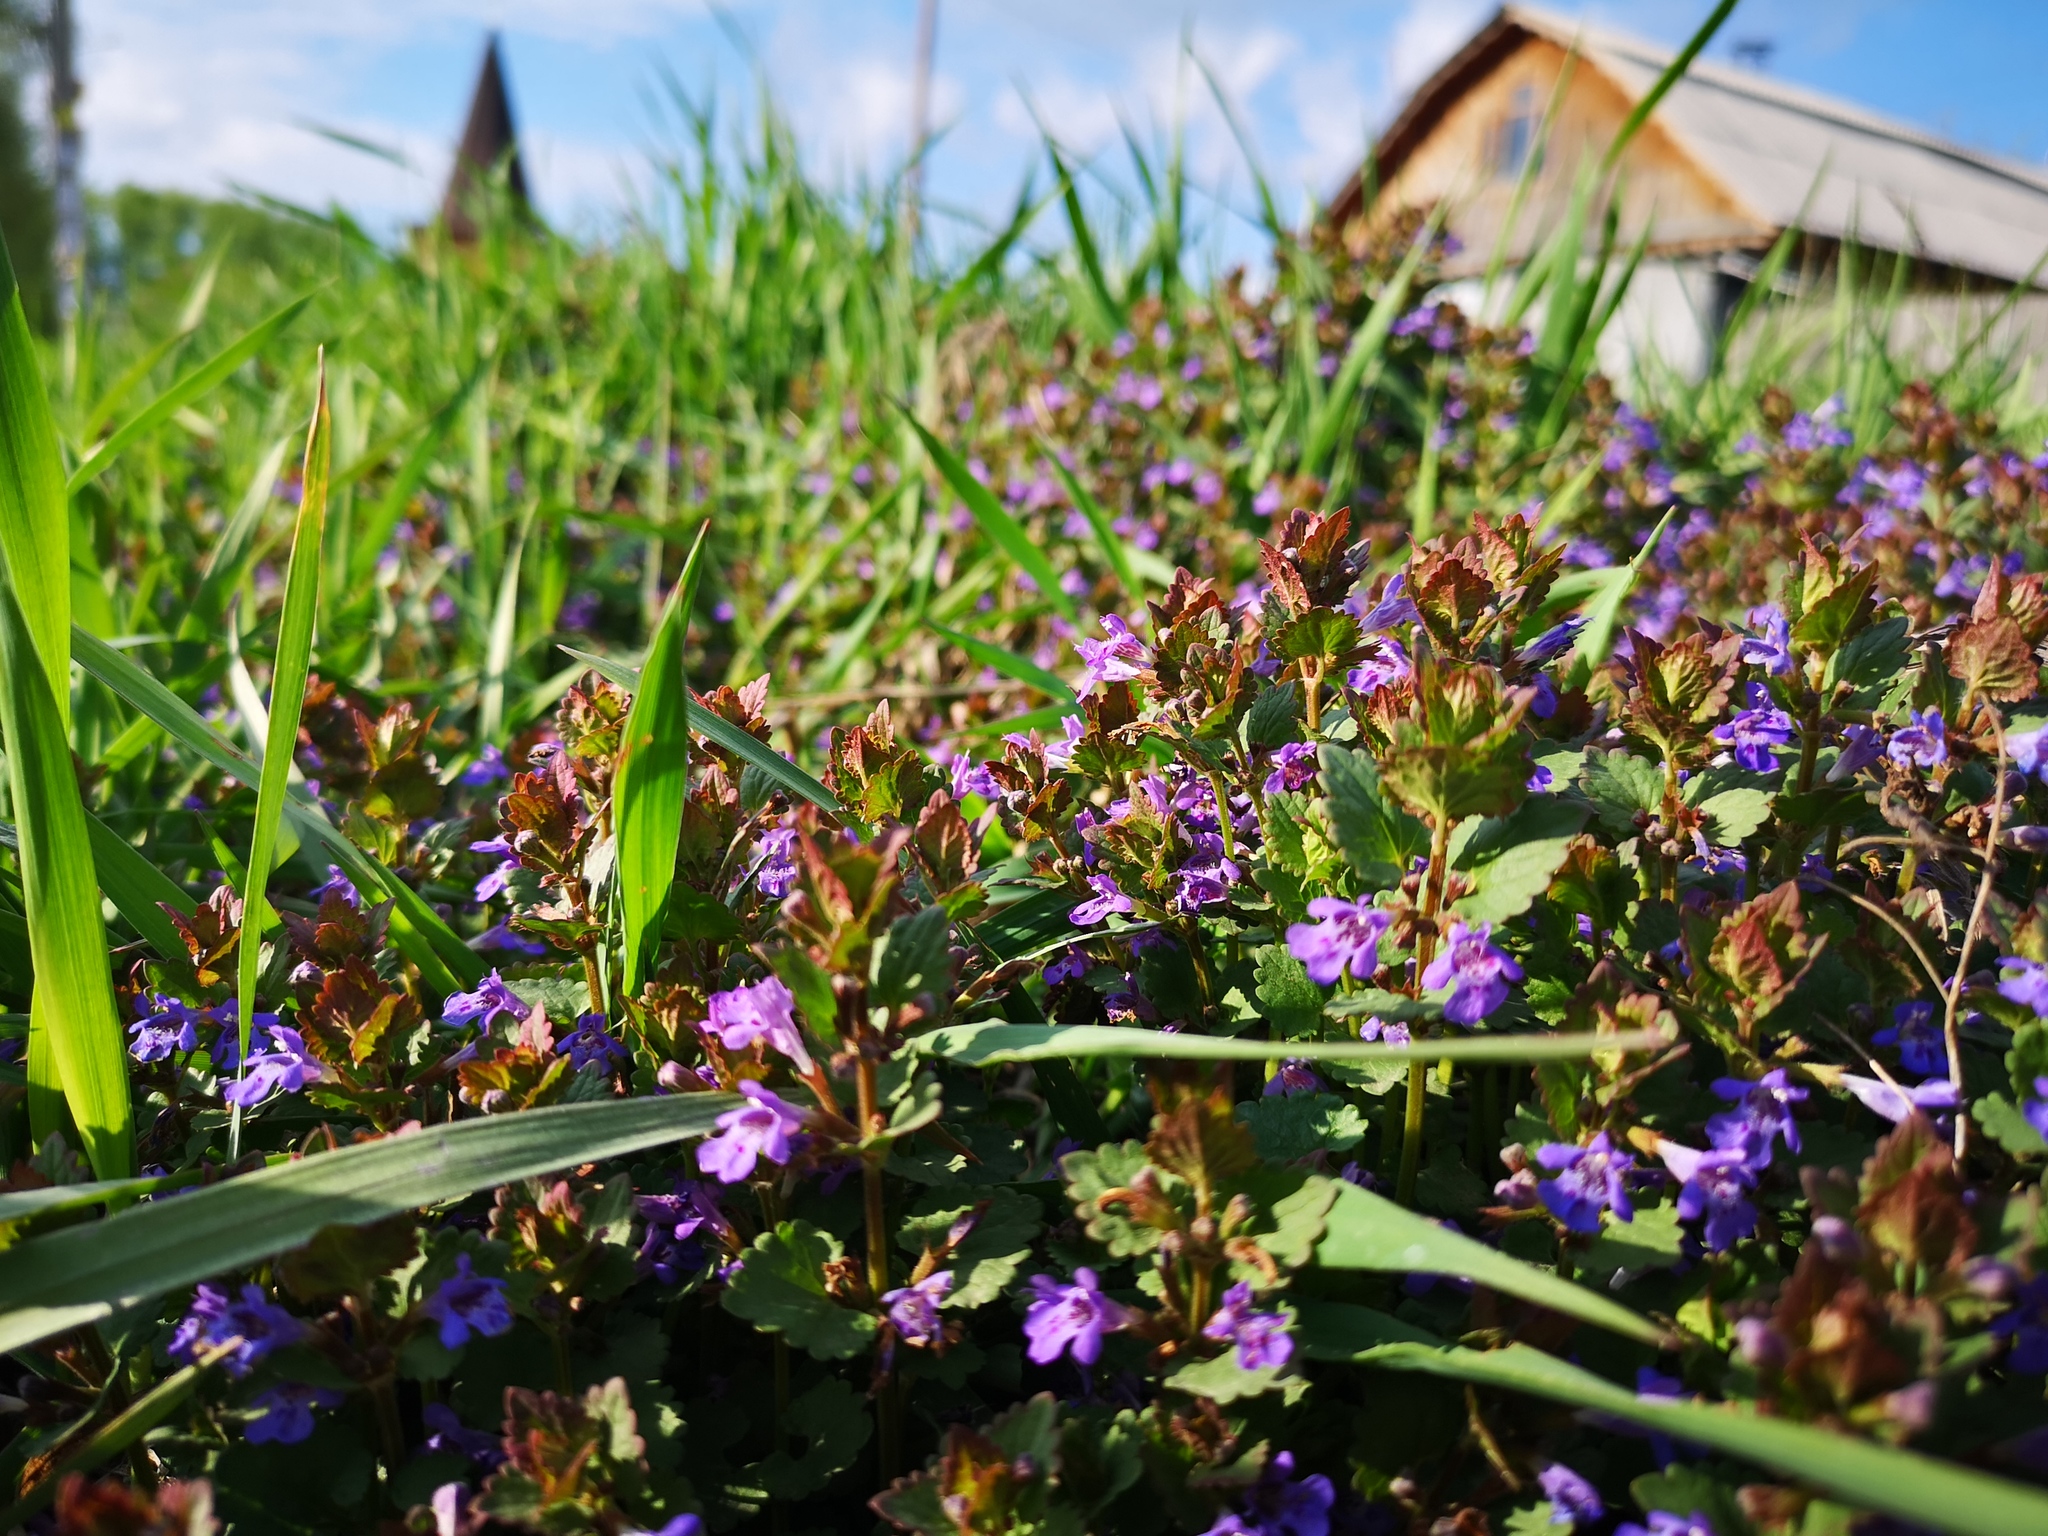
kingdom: Plantae
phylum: Tracheophyta
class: Magnoliopsida
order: Lamiales
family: Lamiaceae
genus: Glechoma
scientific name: Glechoma hederacea
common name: Ground ivy
